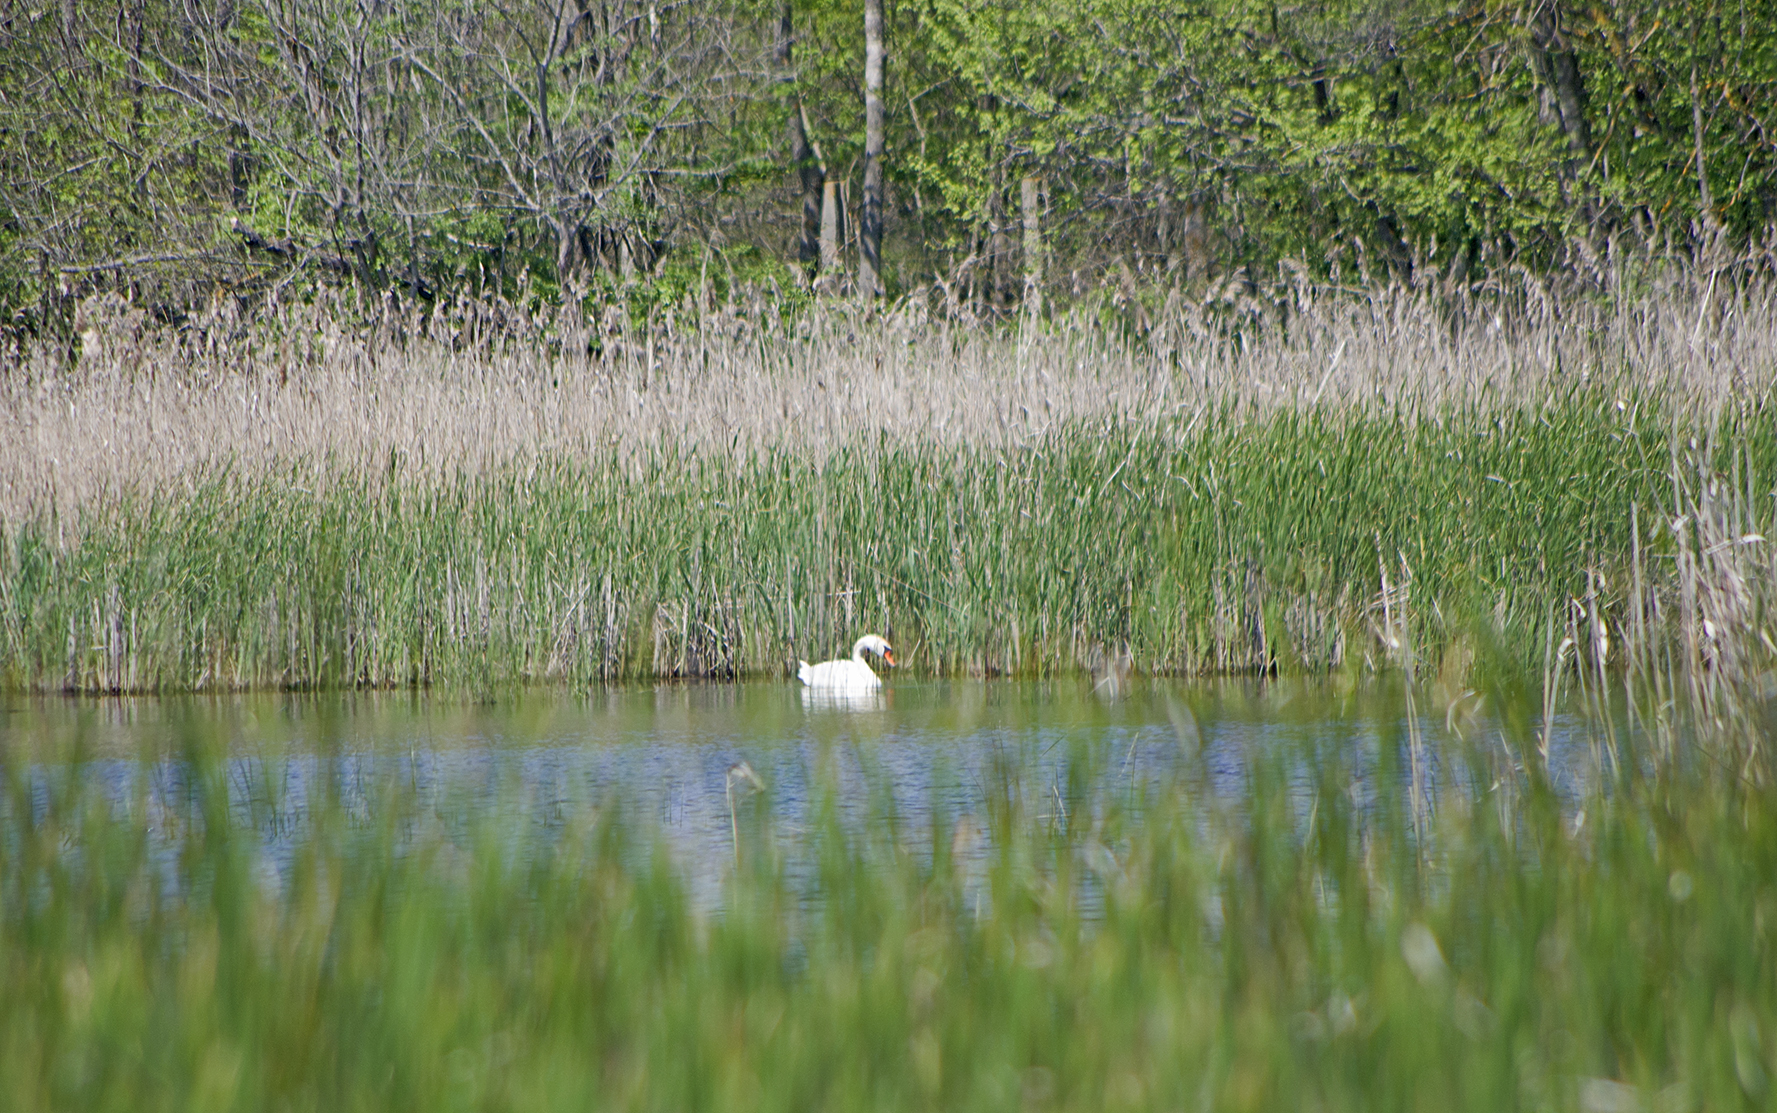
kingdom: Animalia
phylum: Chordata
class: Aves
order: Anseriformes
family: Anatidae
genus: Cygnus
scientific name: Cygnus olor
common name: Mute swan
